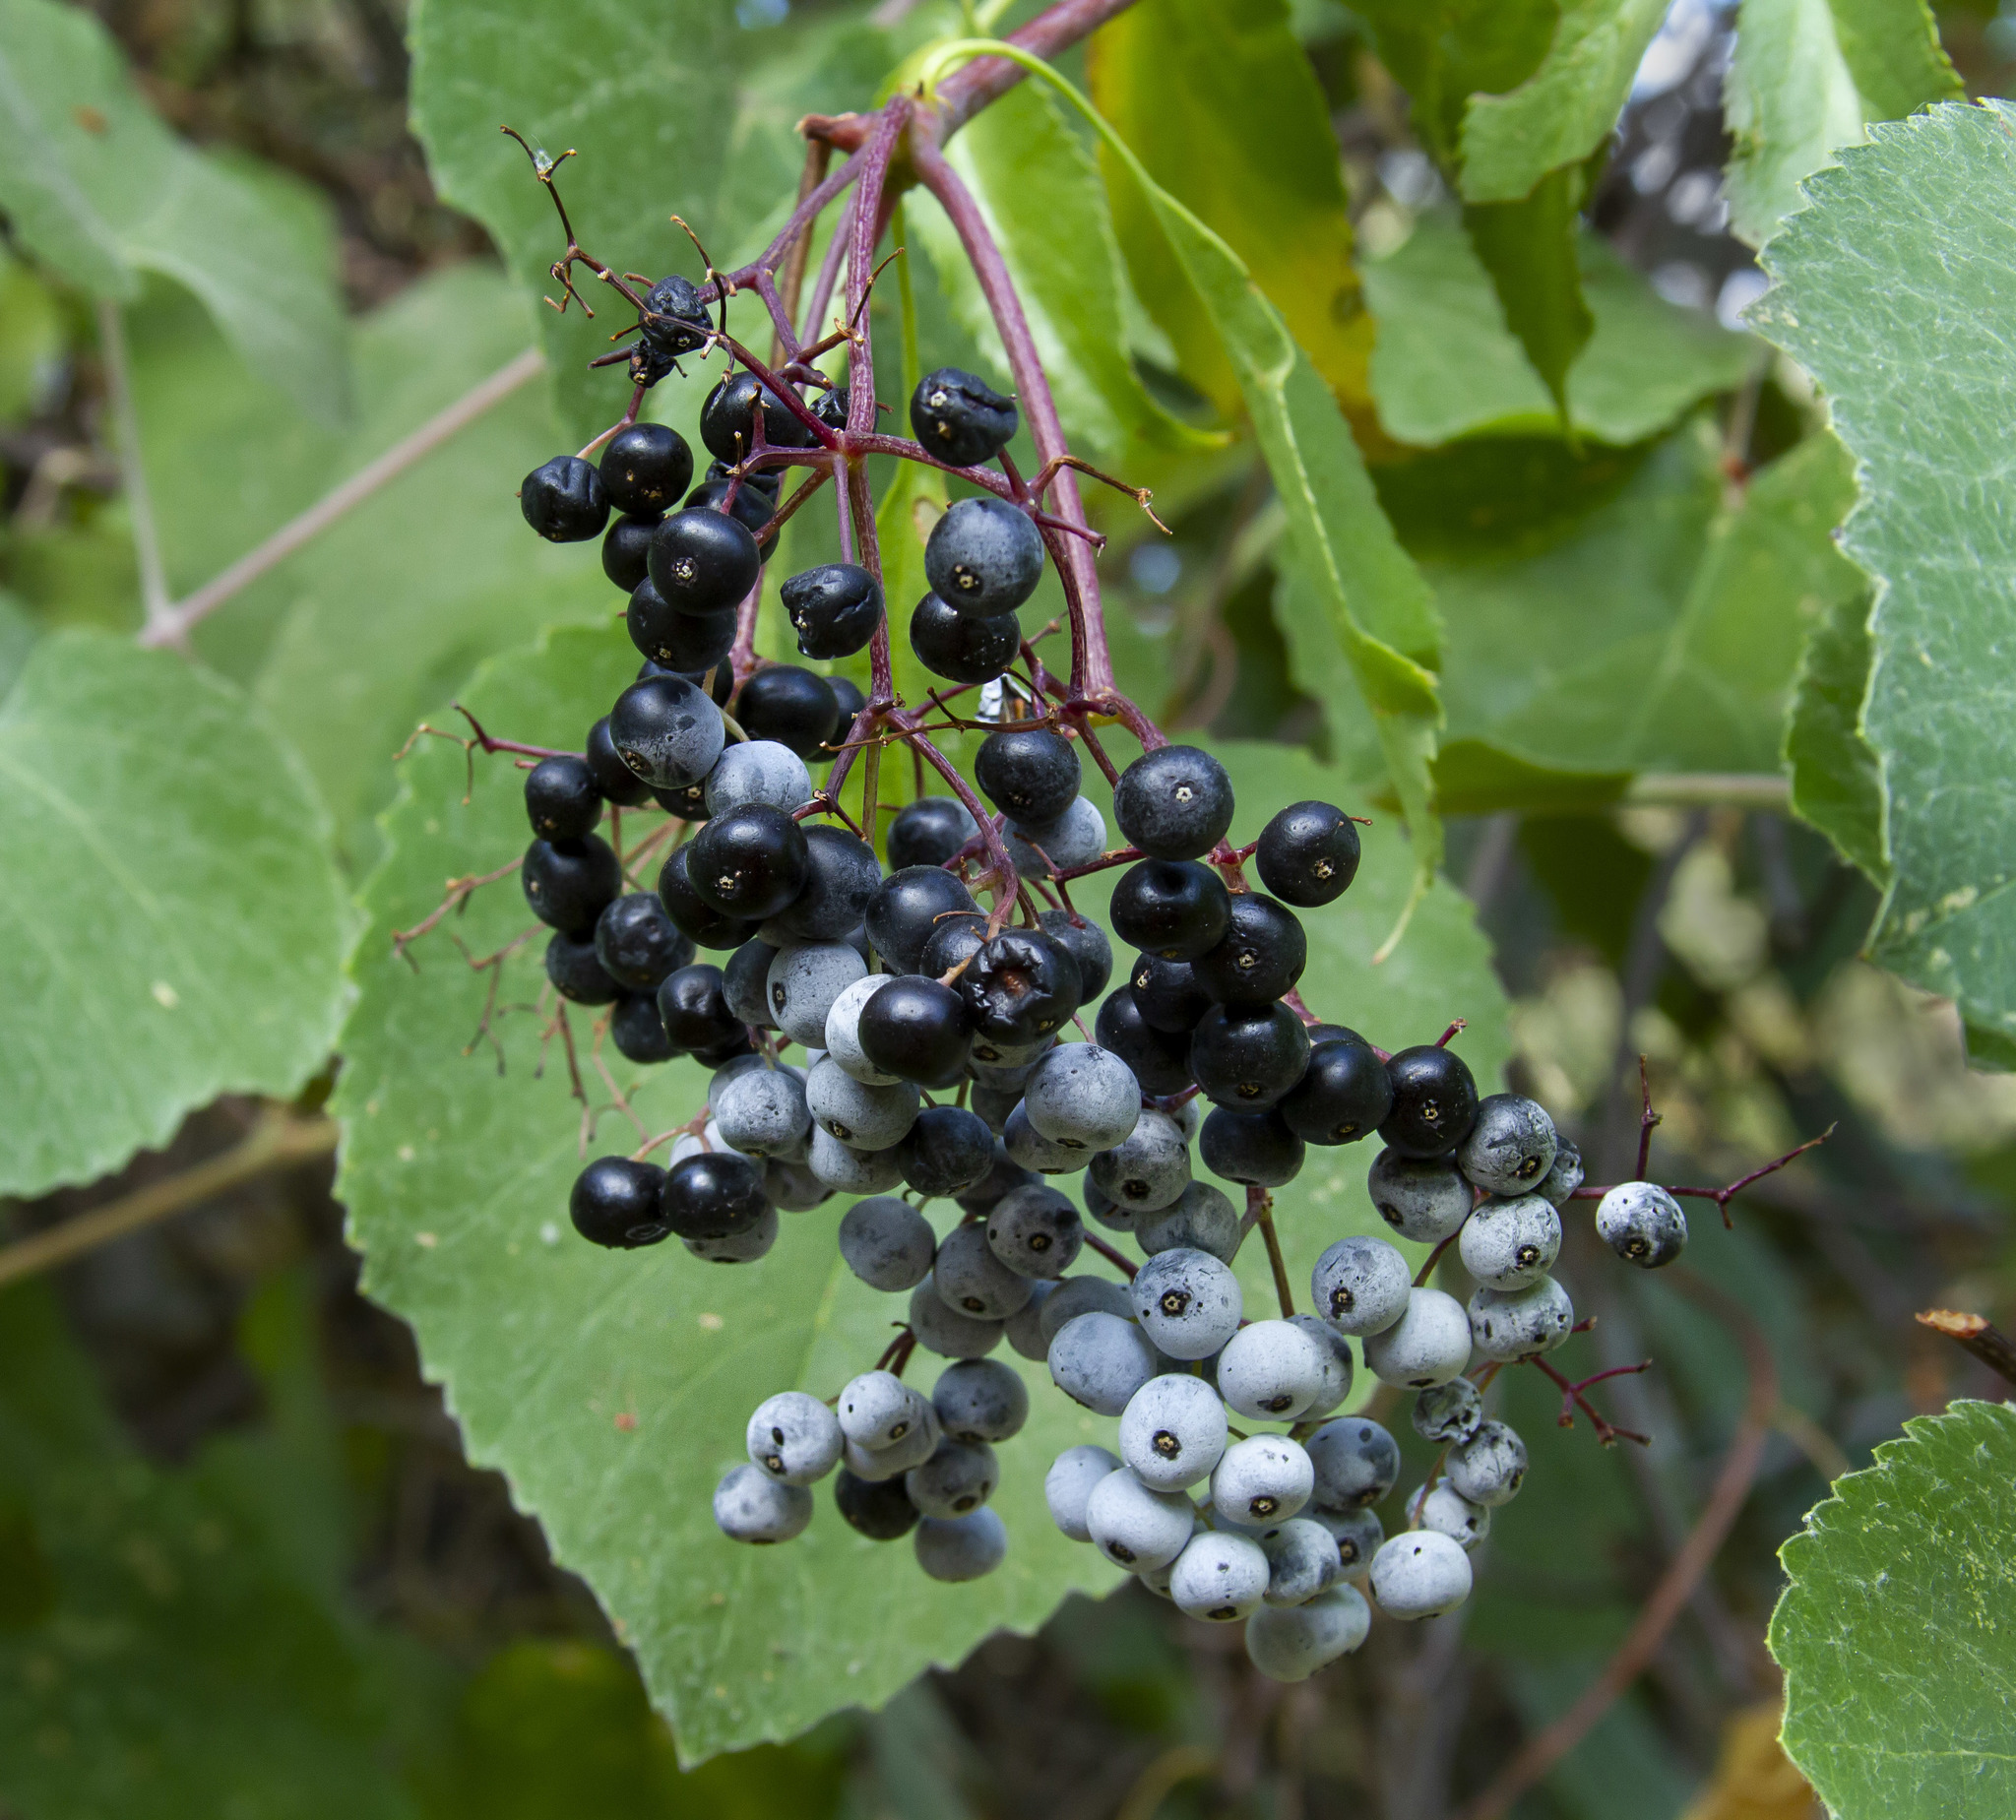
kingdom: Plantae
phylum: Tracheophyta
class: Magnoliopsida
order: Dipsacales
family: Viburnaceae
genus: Sambucus
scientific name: Sambucus cerulea
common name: Blue elder
